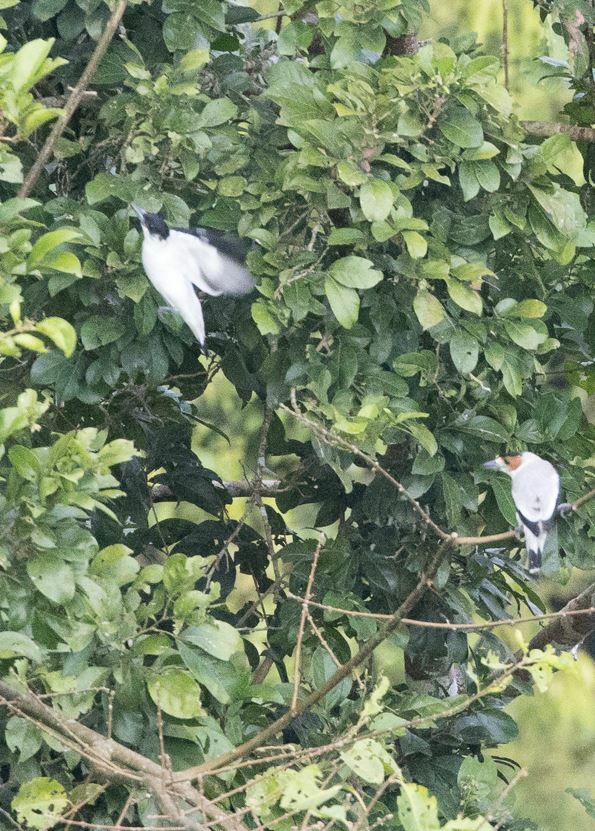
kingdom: Animalia
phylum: Chordata
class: Aves
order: Passeriformes
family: Cotingidae
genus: Tityra
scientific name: Tityra inquisitor
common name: Black-crowned tityra
